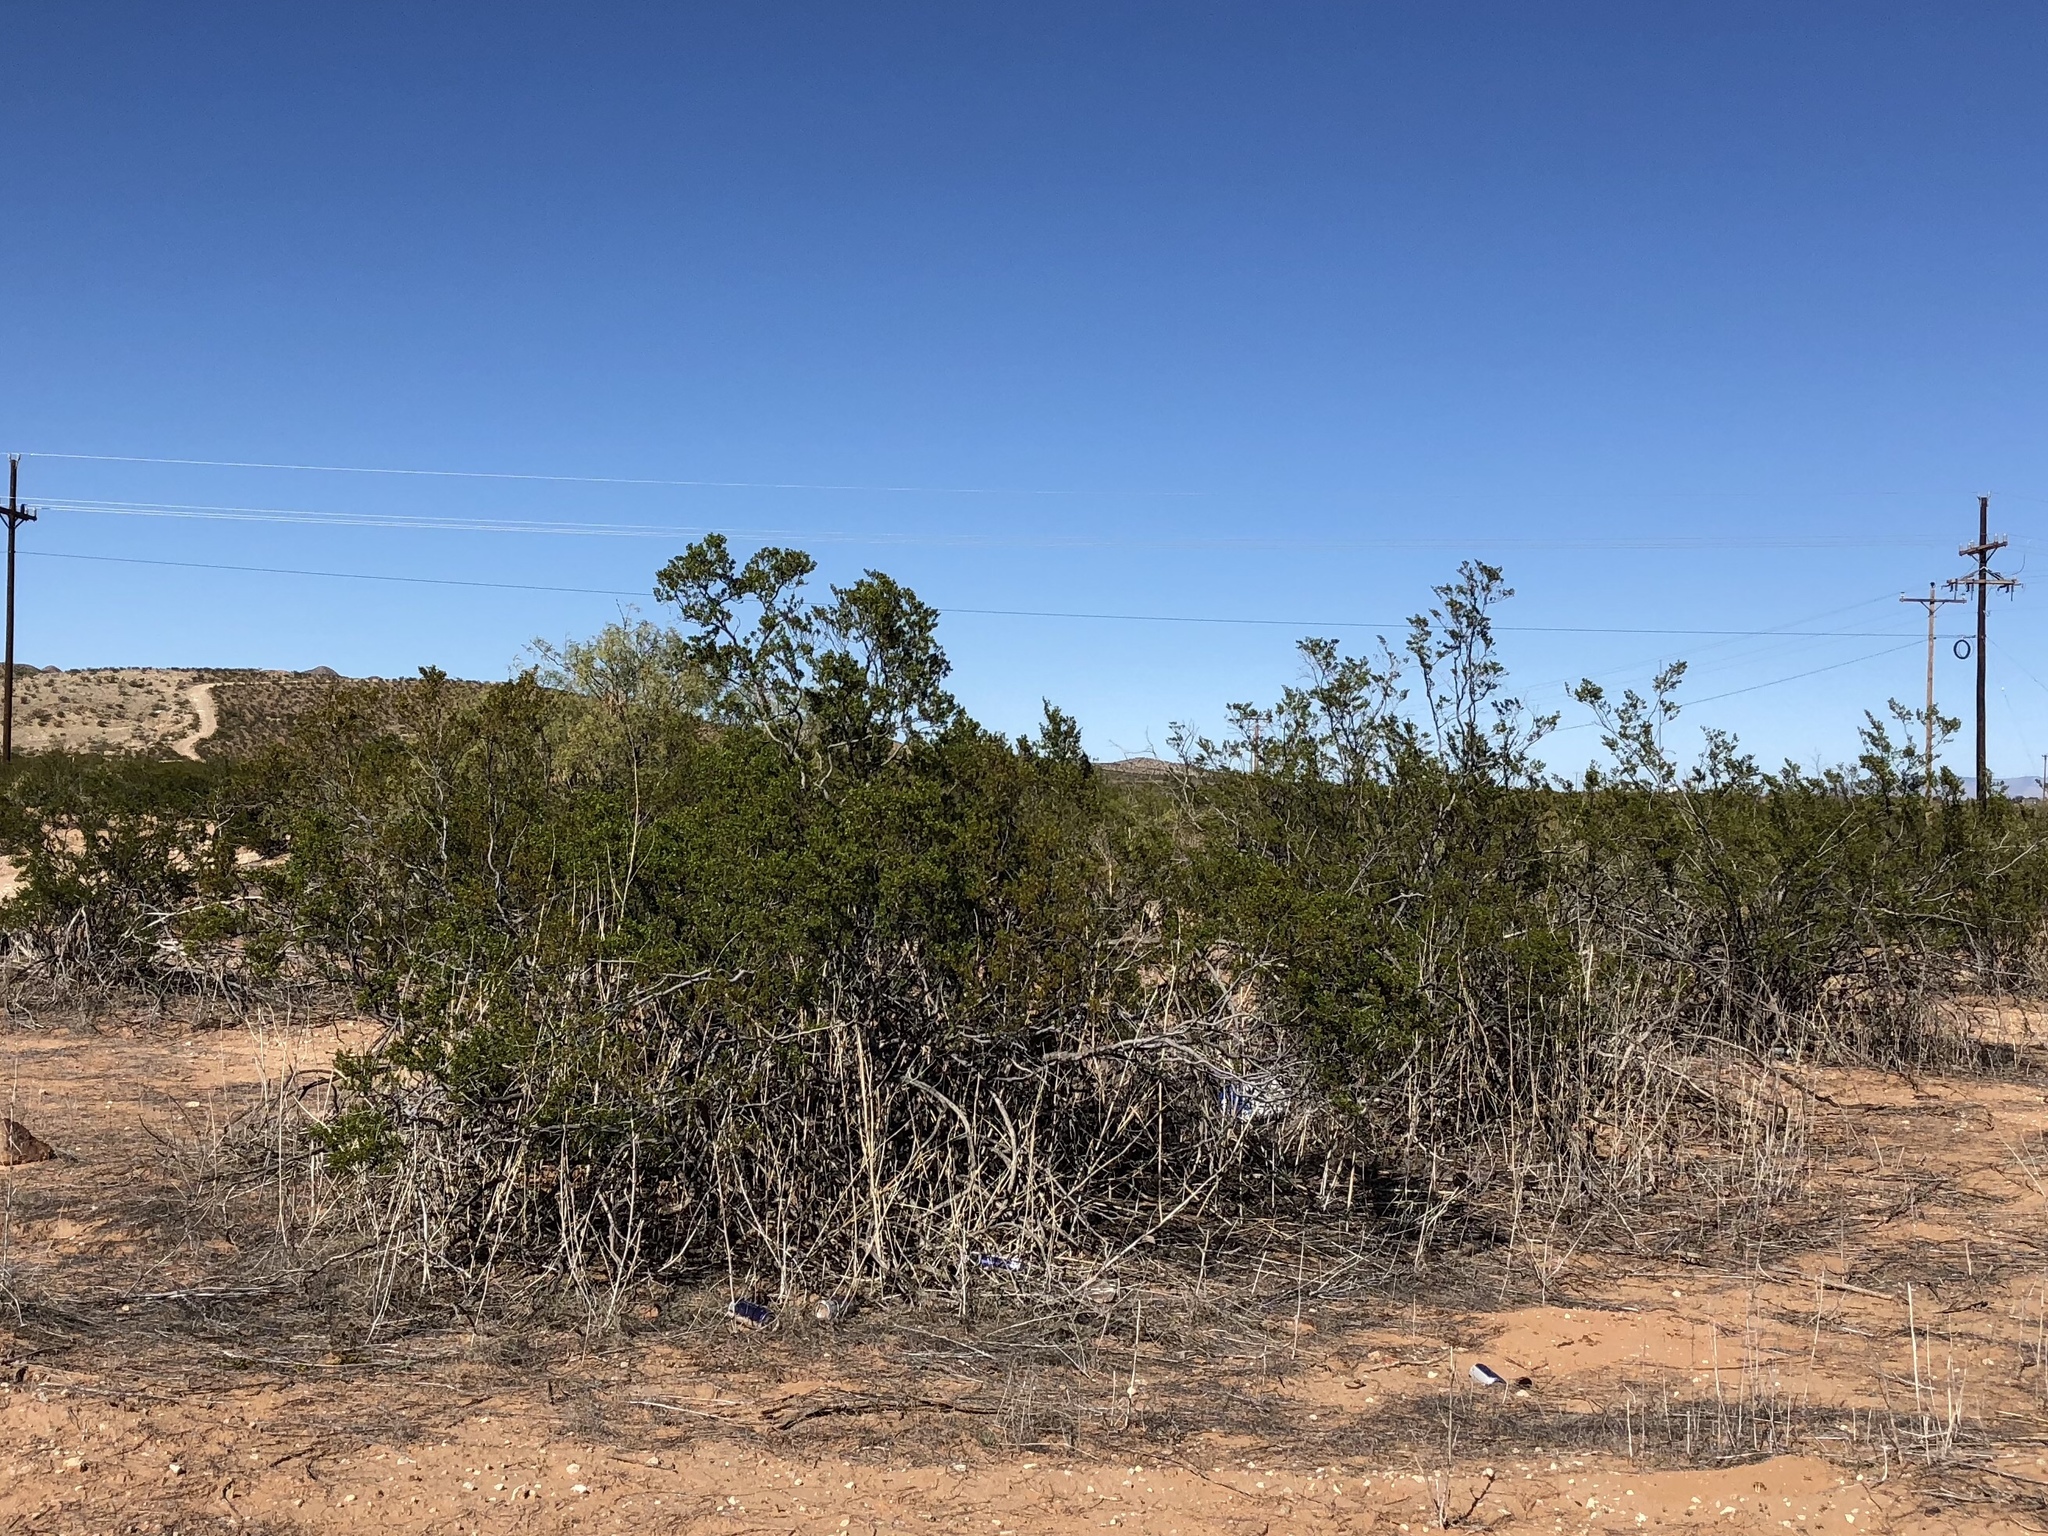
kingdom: Plantae
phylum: Tracheophyta
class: Magnoliopsida
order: Zygophyllales
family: Zygophyllaceae
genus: Larrea
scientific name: Larrea tridentata
